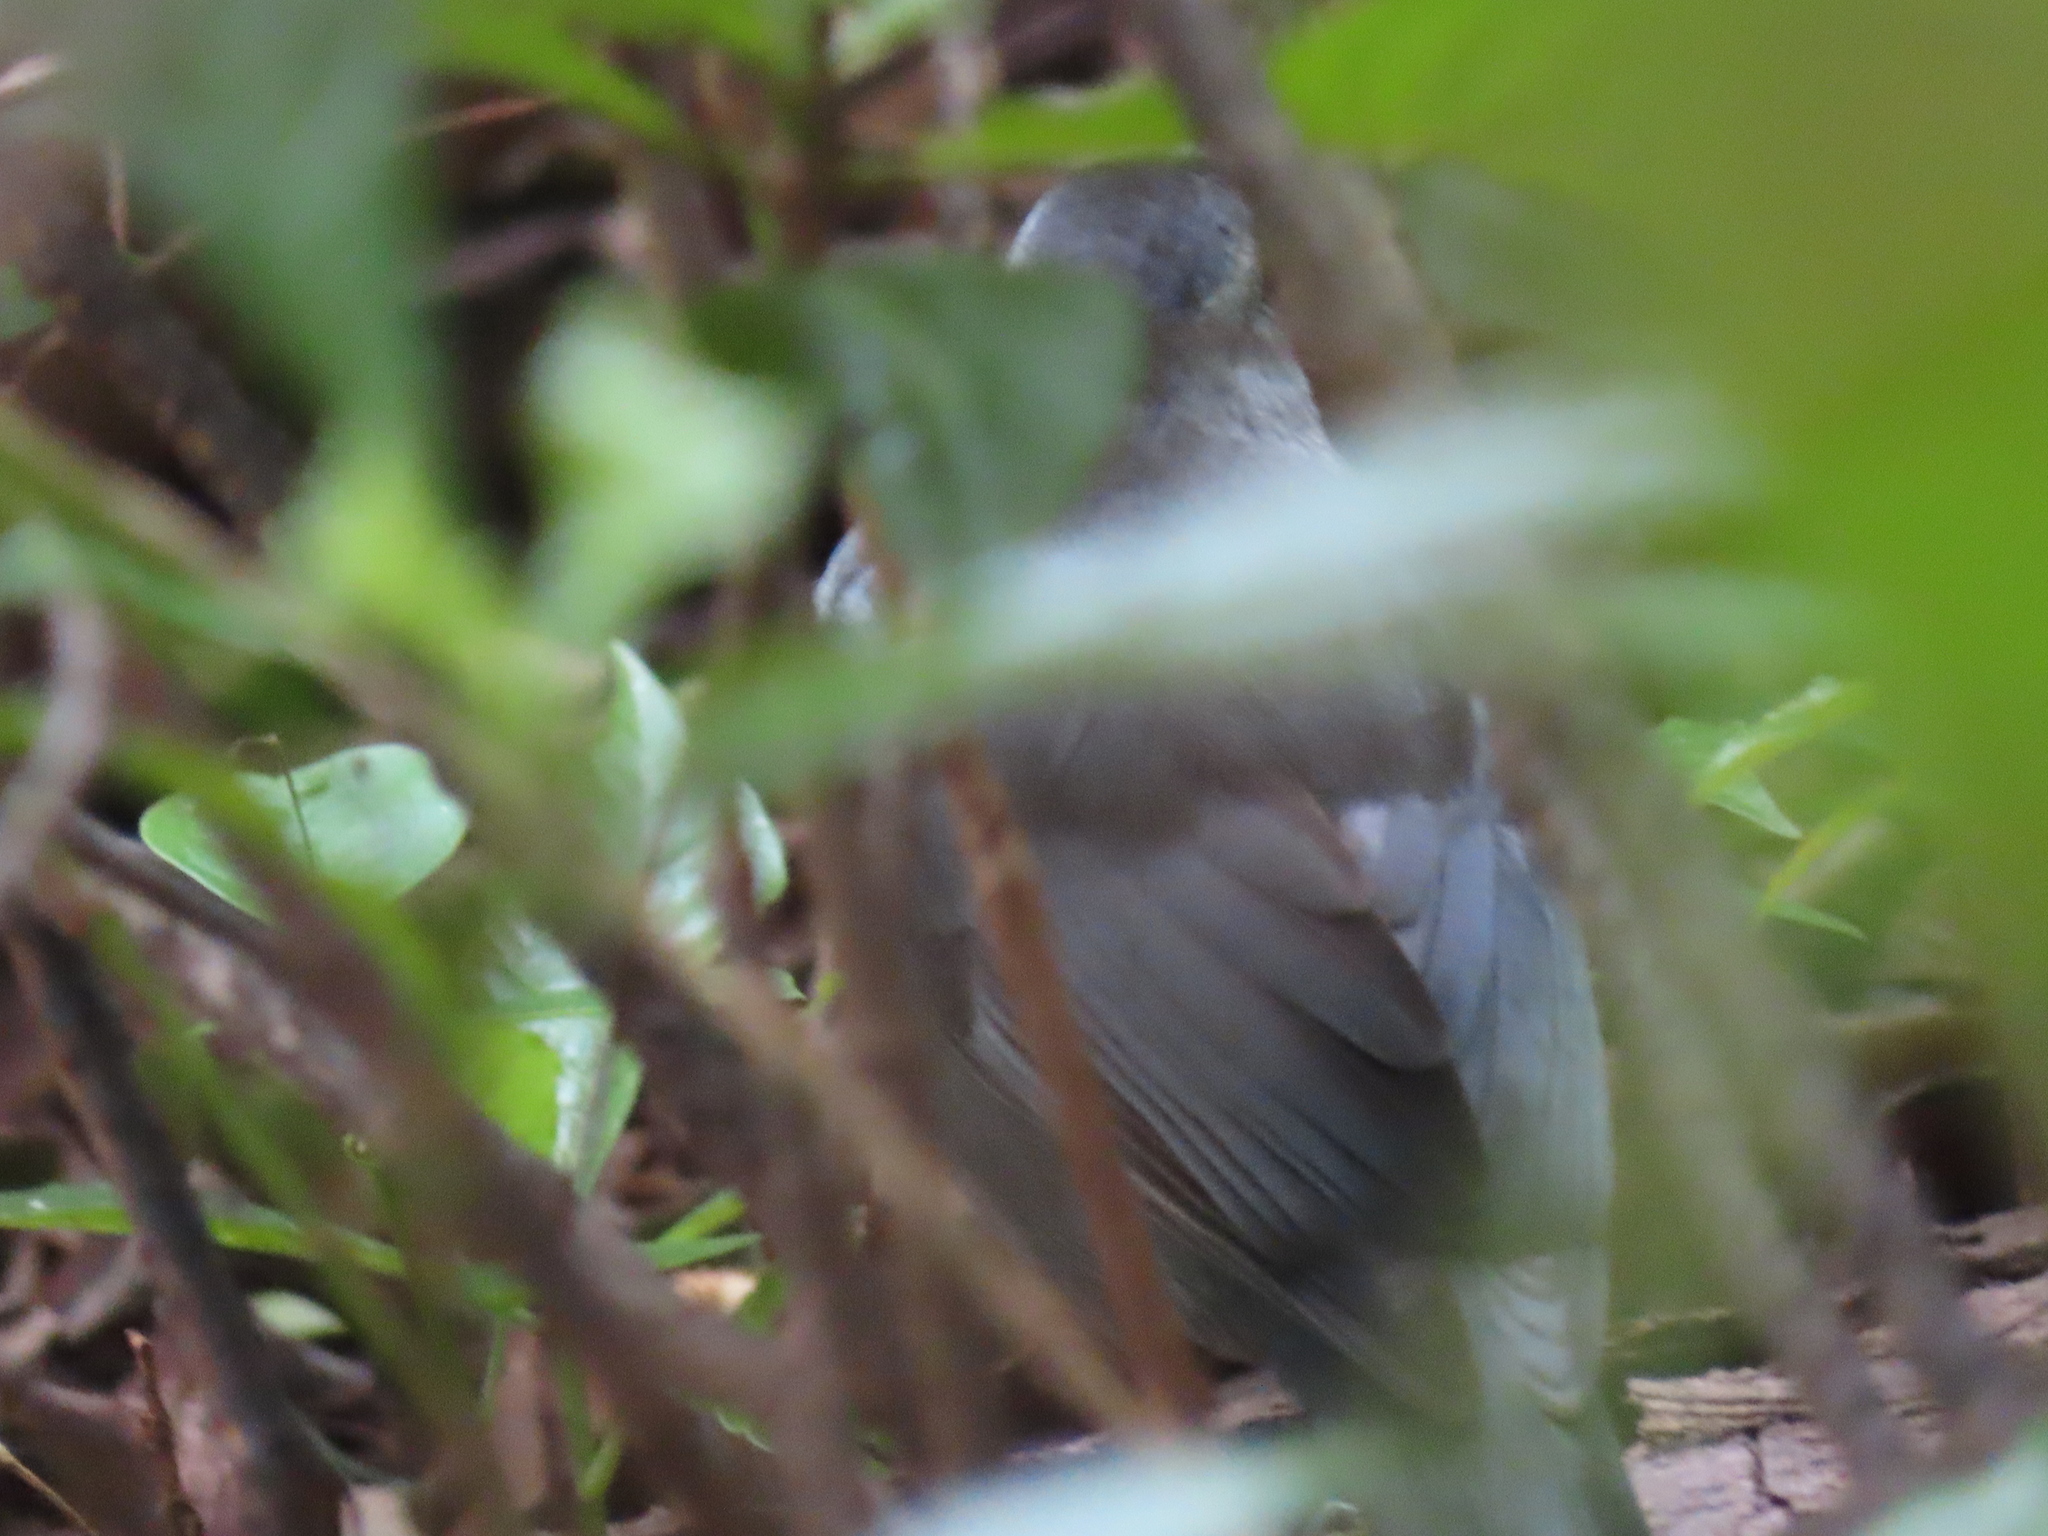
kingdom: Animalia
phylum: Chordata
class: Aves
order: Passeriformes
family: Mimidae
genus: Dumetella
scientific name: Dumetella carolinensis
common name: Gray catbird
